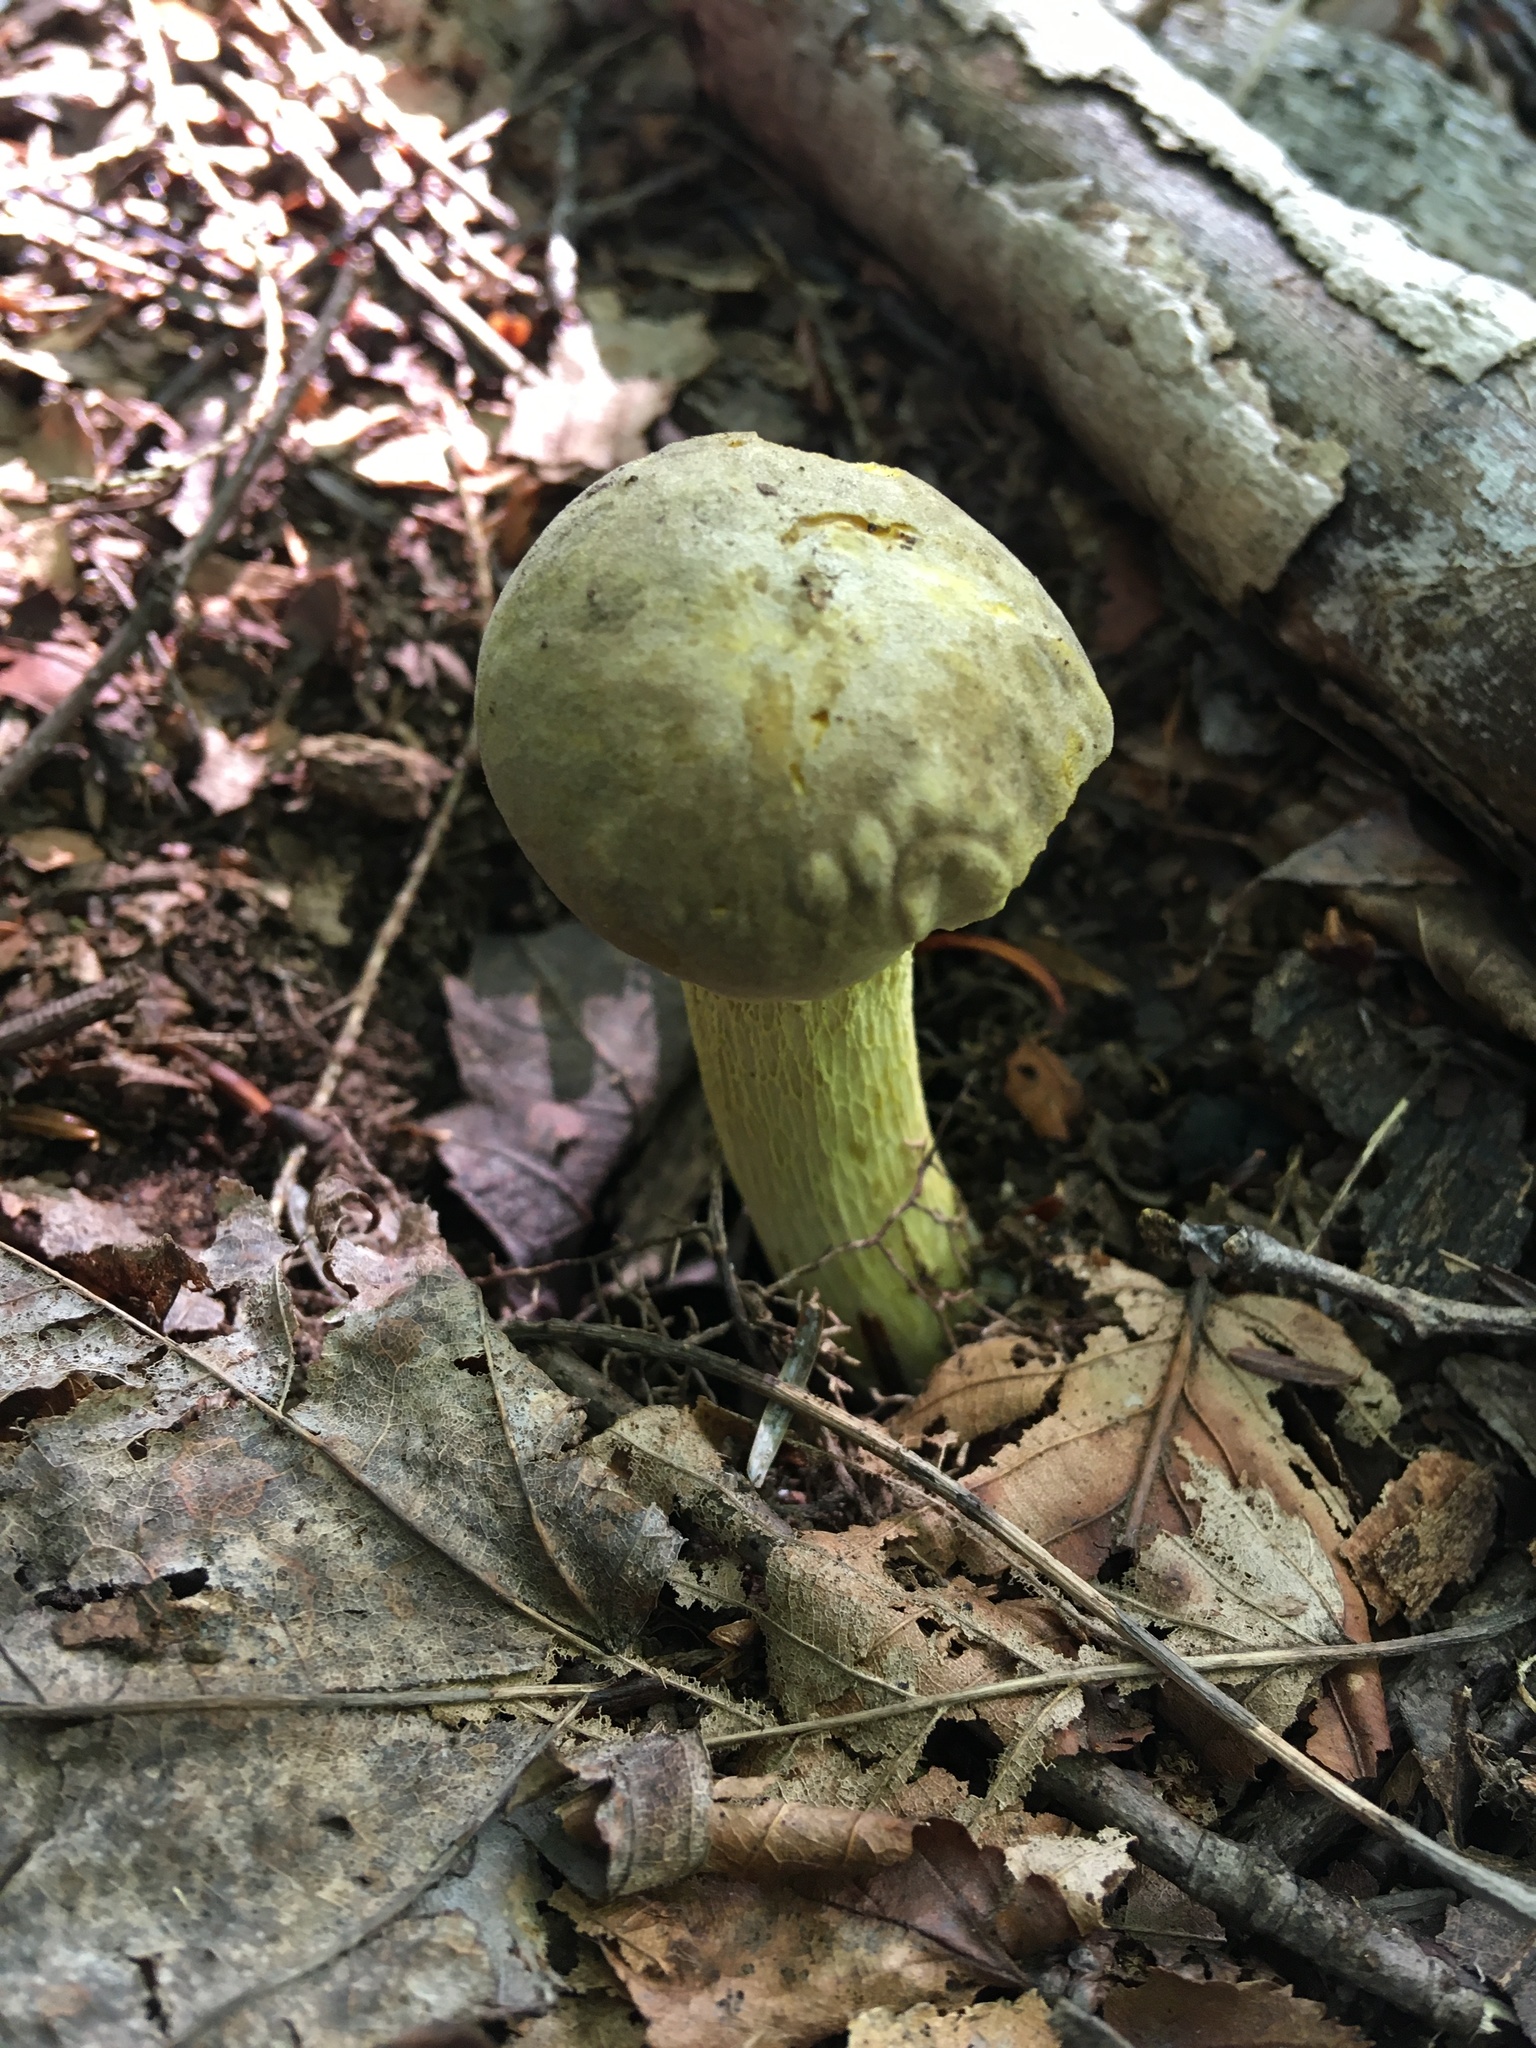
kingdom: Fungi
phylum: Basidiomycota
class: Agaricomycetes
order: Boletales
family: Boletaceae
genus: Retiboletus
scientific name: Retiboletus ornatipes
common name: Ornate-stalked bolete
